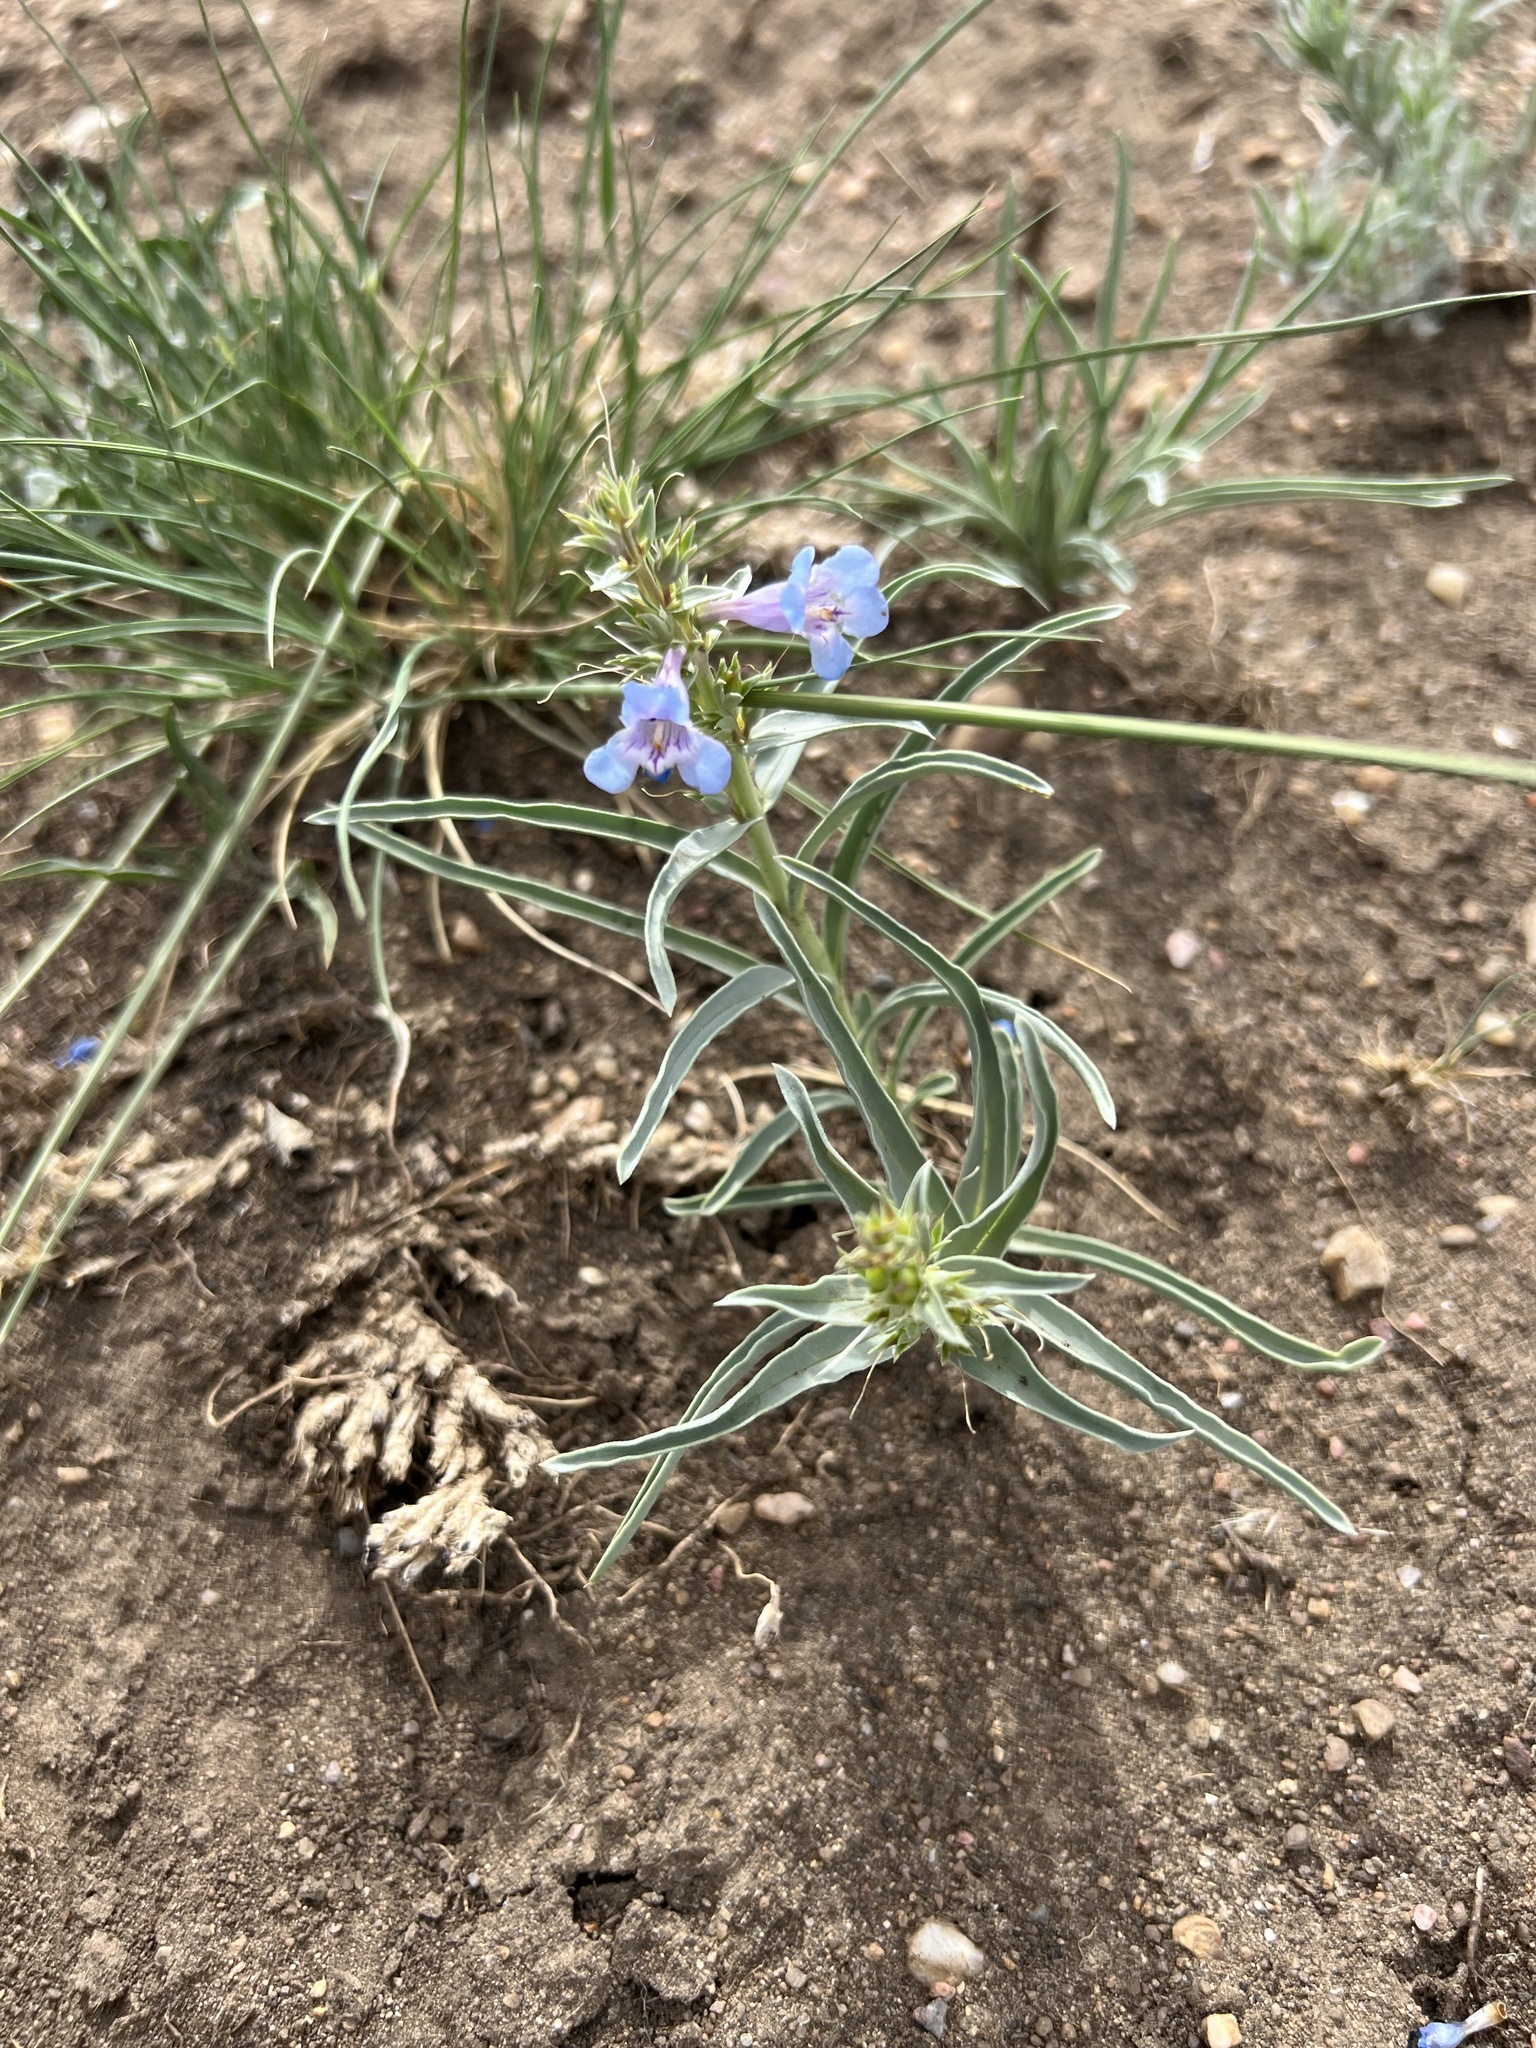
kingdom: Plantae
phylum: Tracheophyta
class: Magnoliopsida
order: Lamiales
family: Plantaginaceae
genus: Penstemon
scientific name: Penstemon angustifolius
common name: Narrow beardtongue
